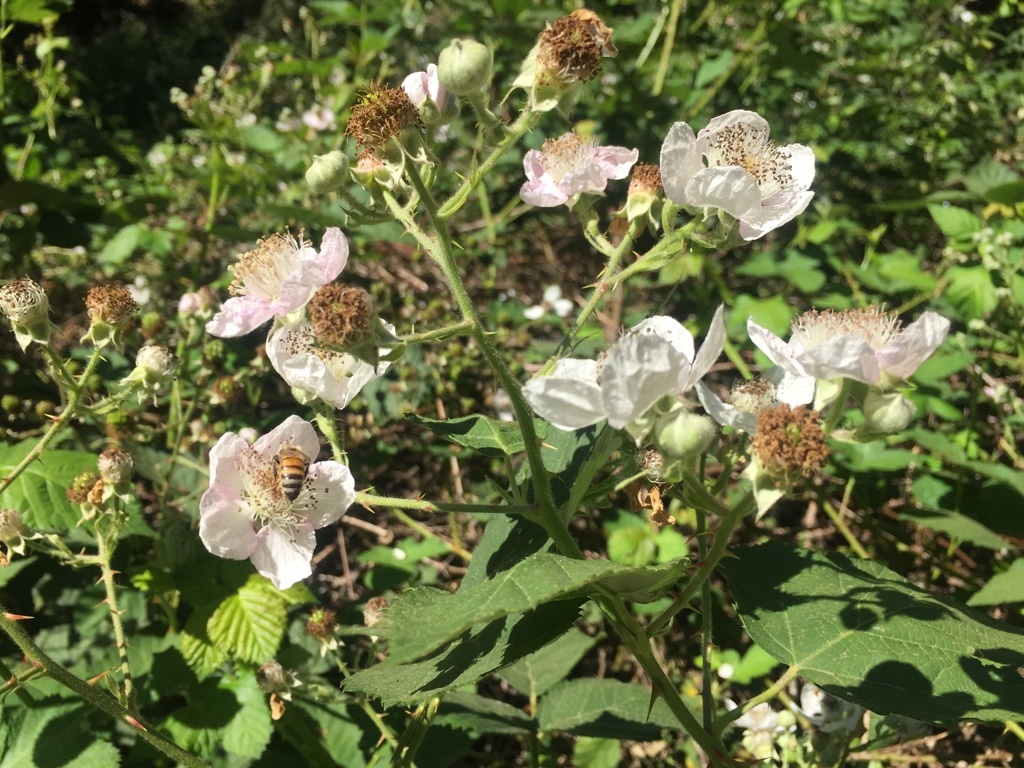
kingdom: Animalia
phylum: Arthropoda
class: Insecta
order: Hymenoptera
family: Apidae
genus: Apis
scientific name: Apis mellifera
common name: Honey bee
